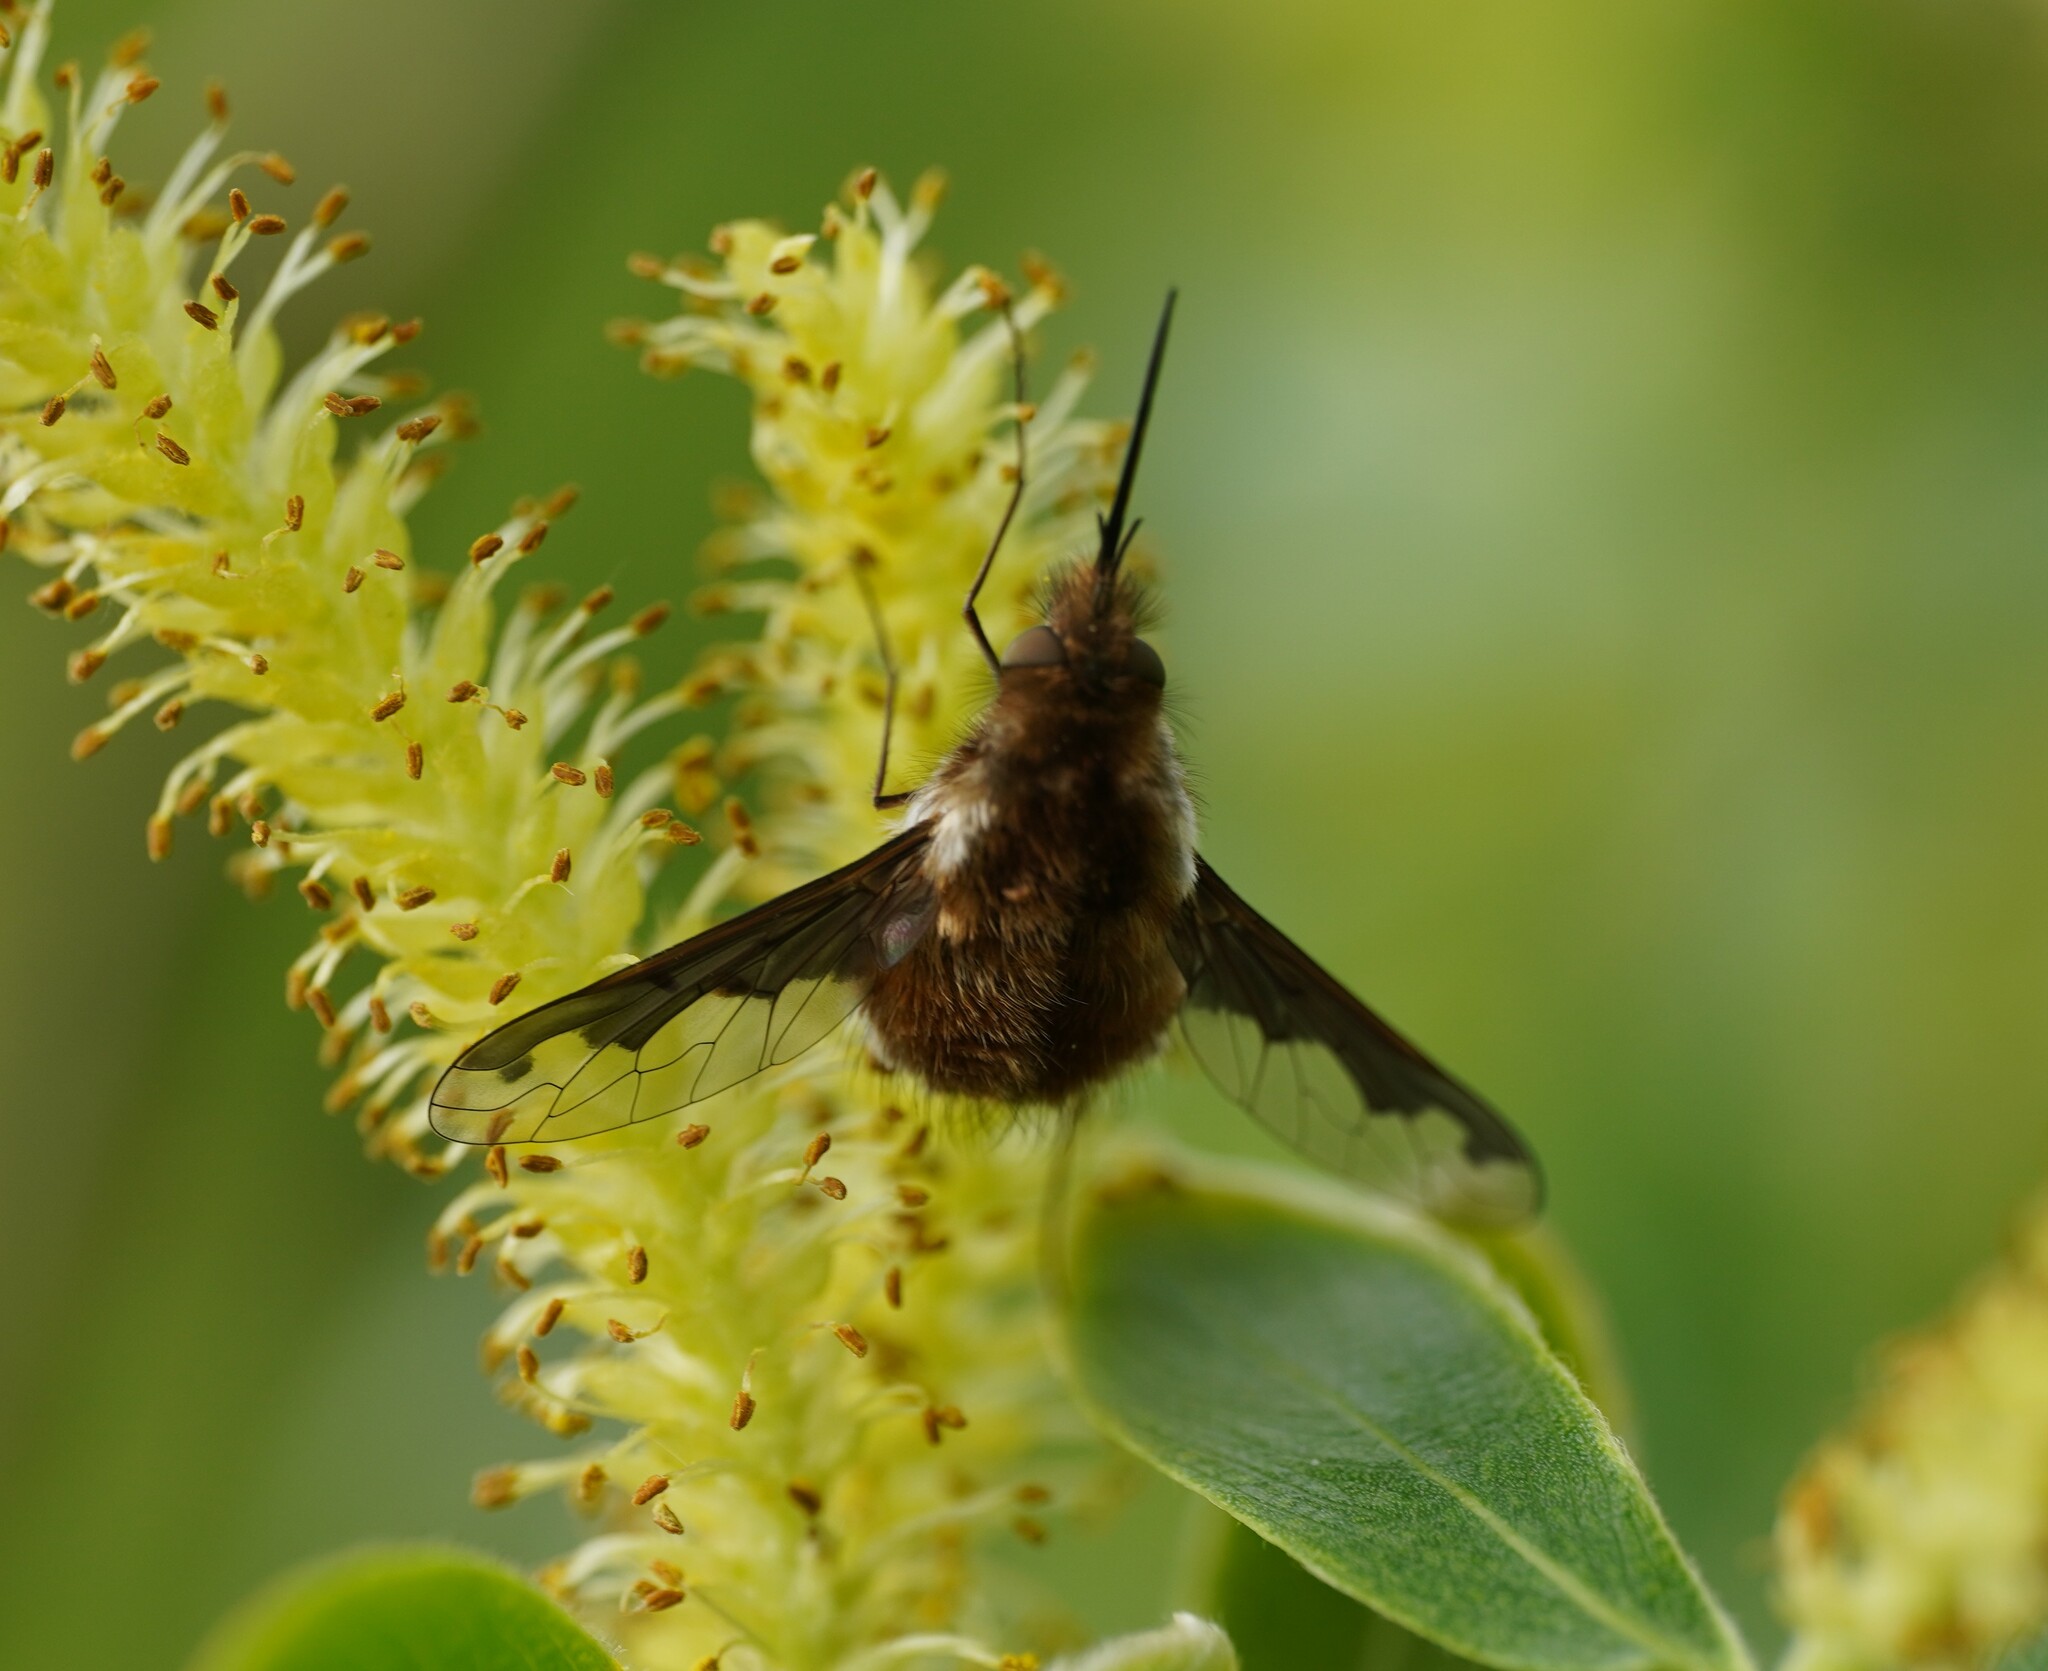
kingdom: Animalia
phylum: Arthropoda
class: Insecta
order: Diptera
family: Bombyliidae
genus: Bombylius
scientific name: Bombylius major
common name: Bee fly
